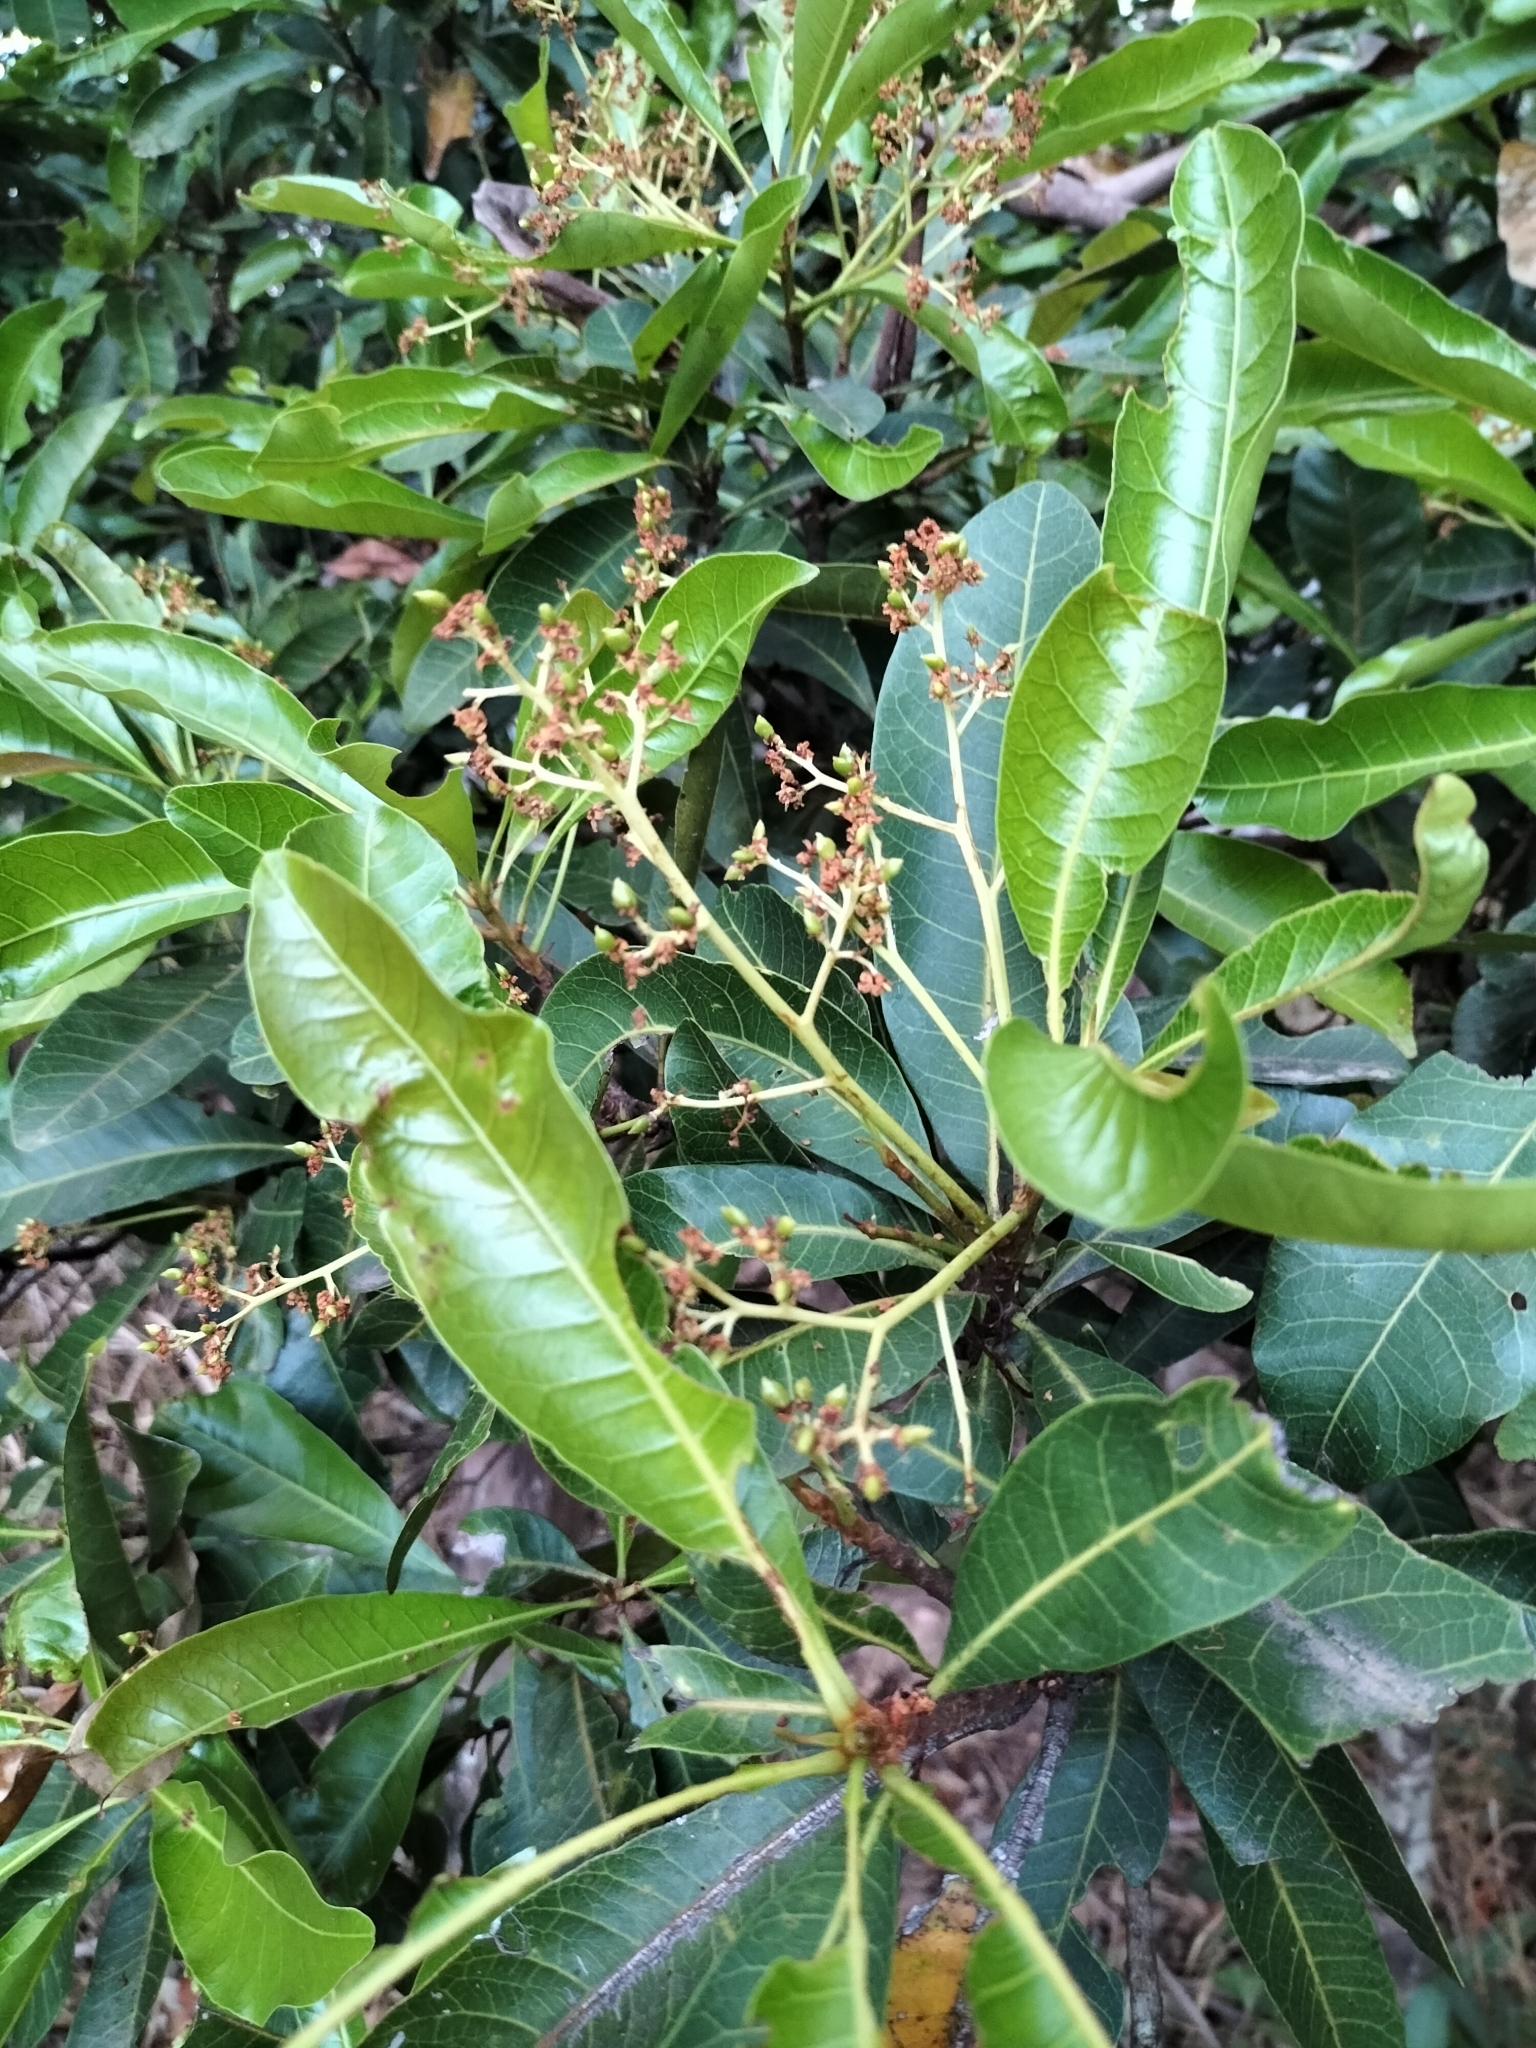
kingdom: Plantae
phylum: Tracheophyta
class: Magnoliopsida
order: Sapindales
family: Anacardiaceae
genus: Buchanania
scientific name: Buchanania arborescens
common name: Sparrow’s mango
